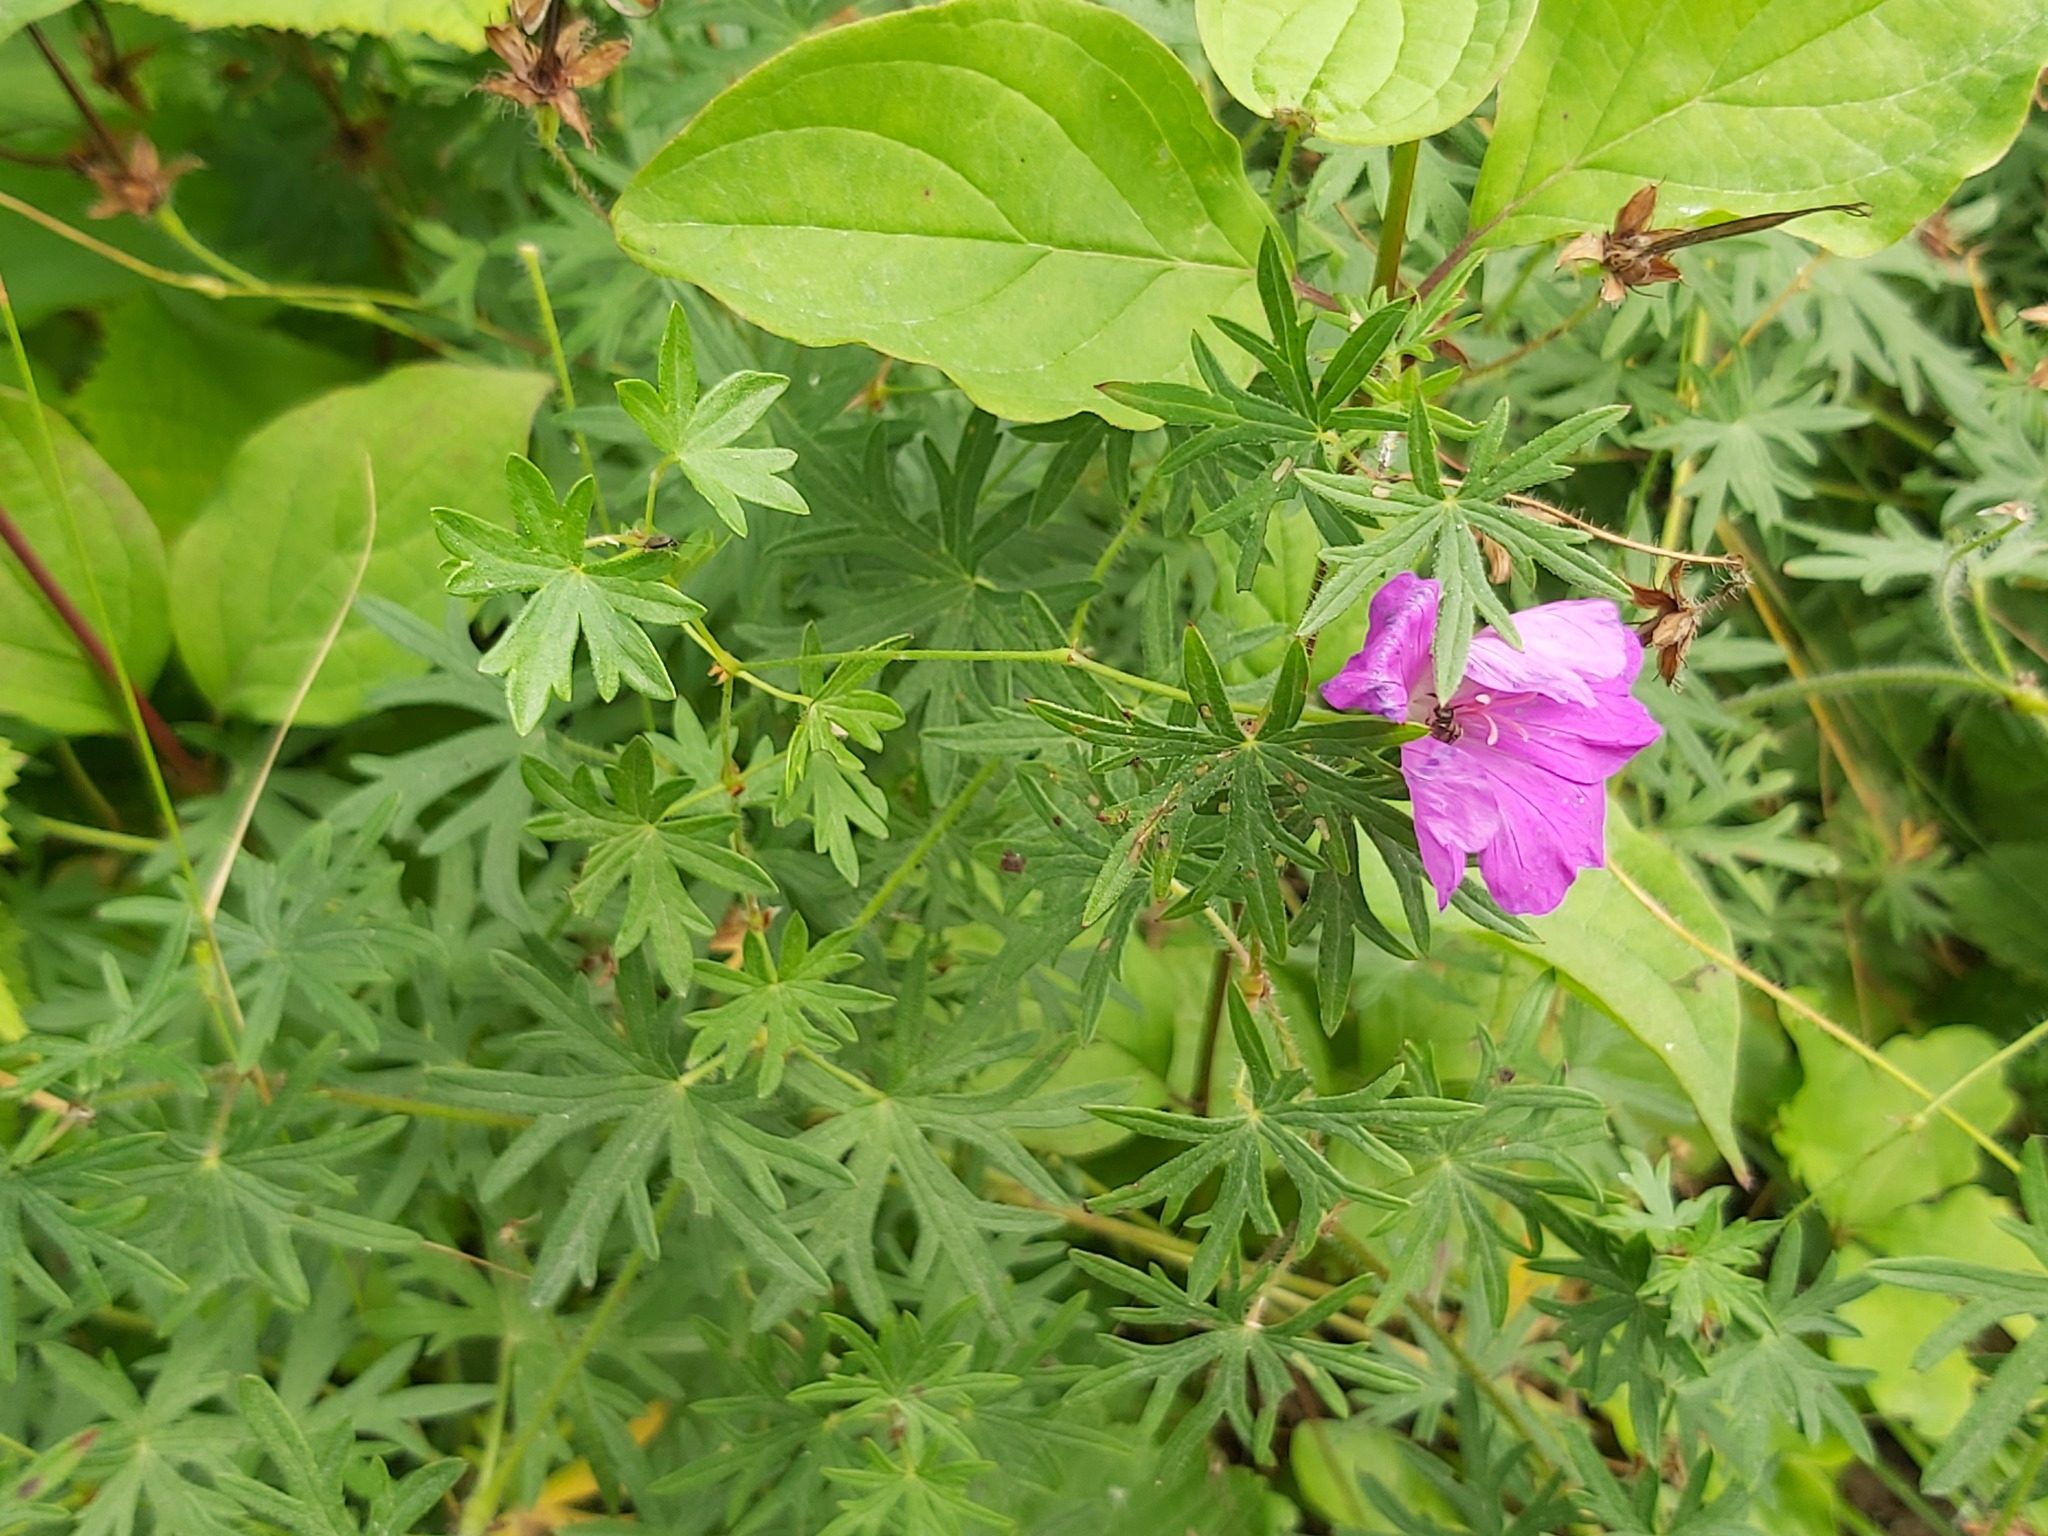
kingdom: Plantae
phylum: Tracheophyta
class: Magnoliopsida
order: Geraniales
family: Geraniaceae
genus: Geranium
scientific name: Geranium sanguineum
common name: Bloody crane's-bill
